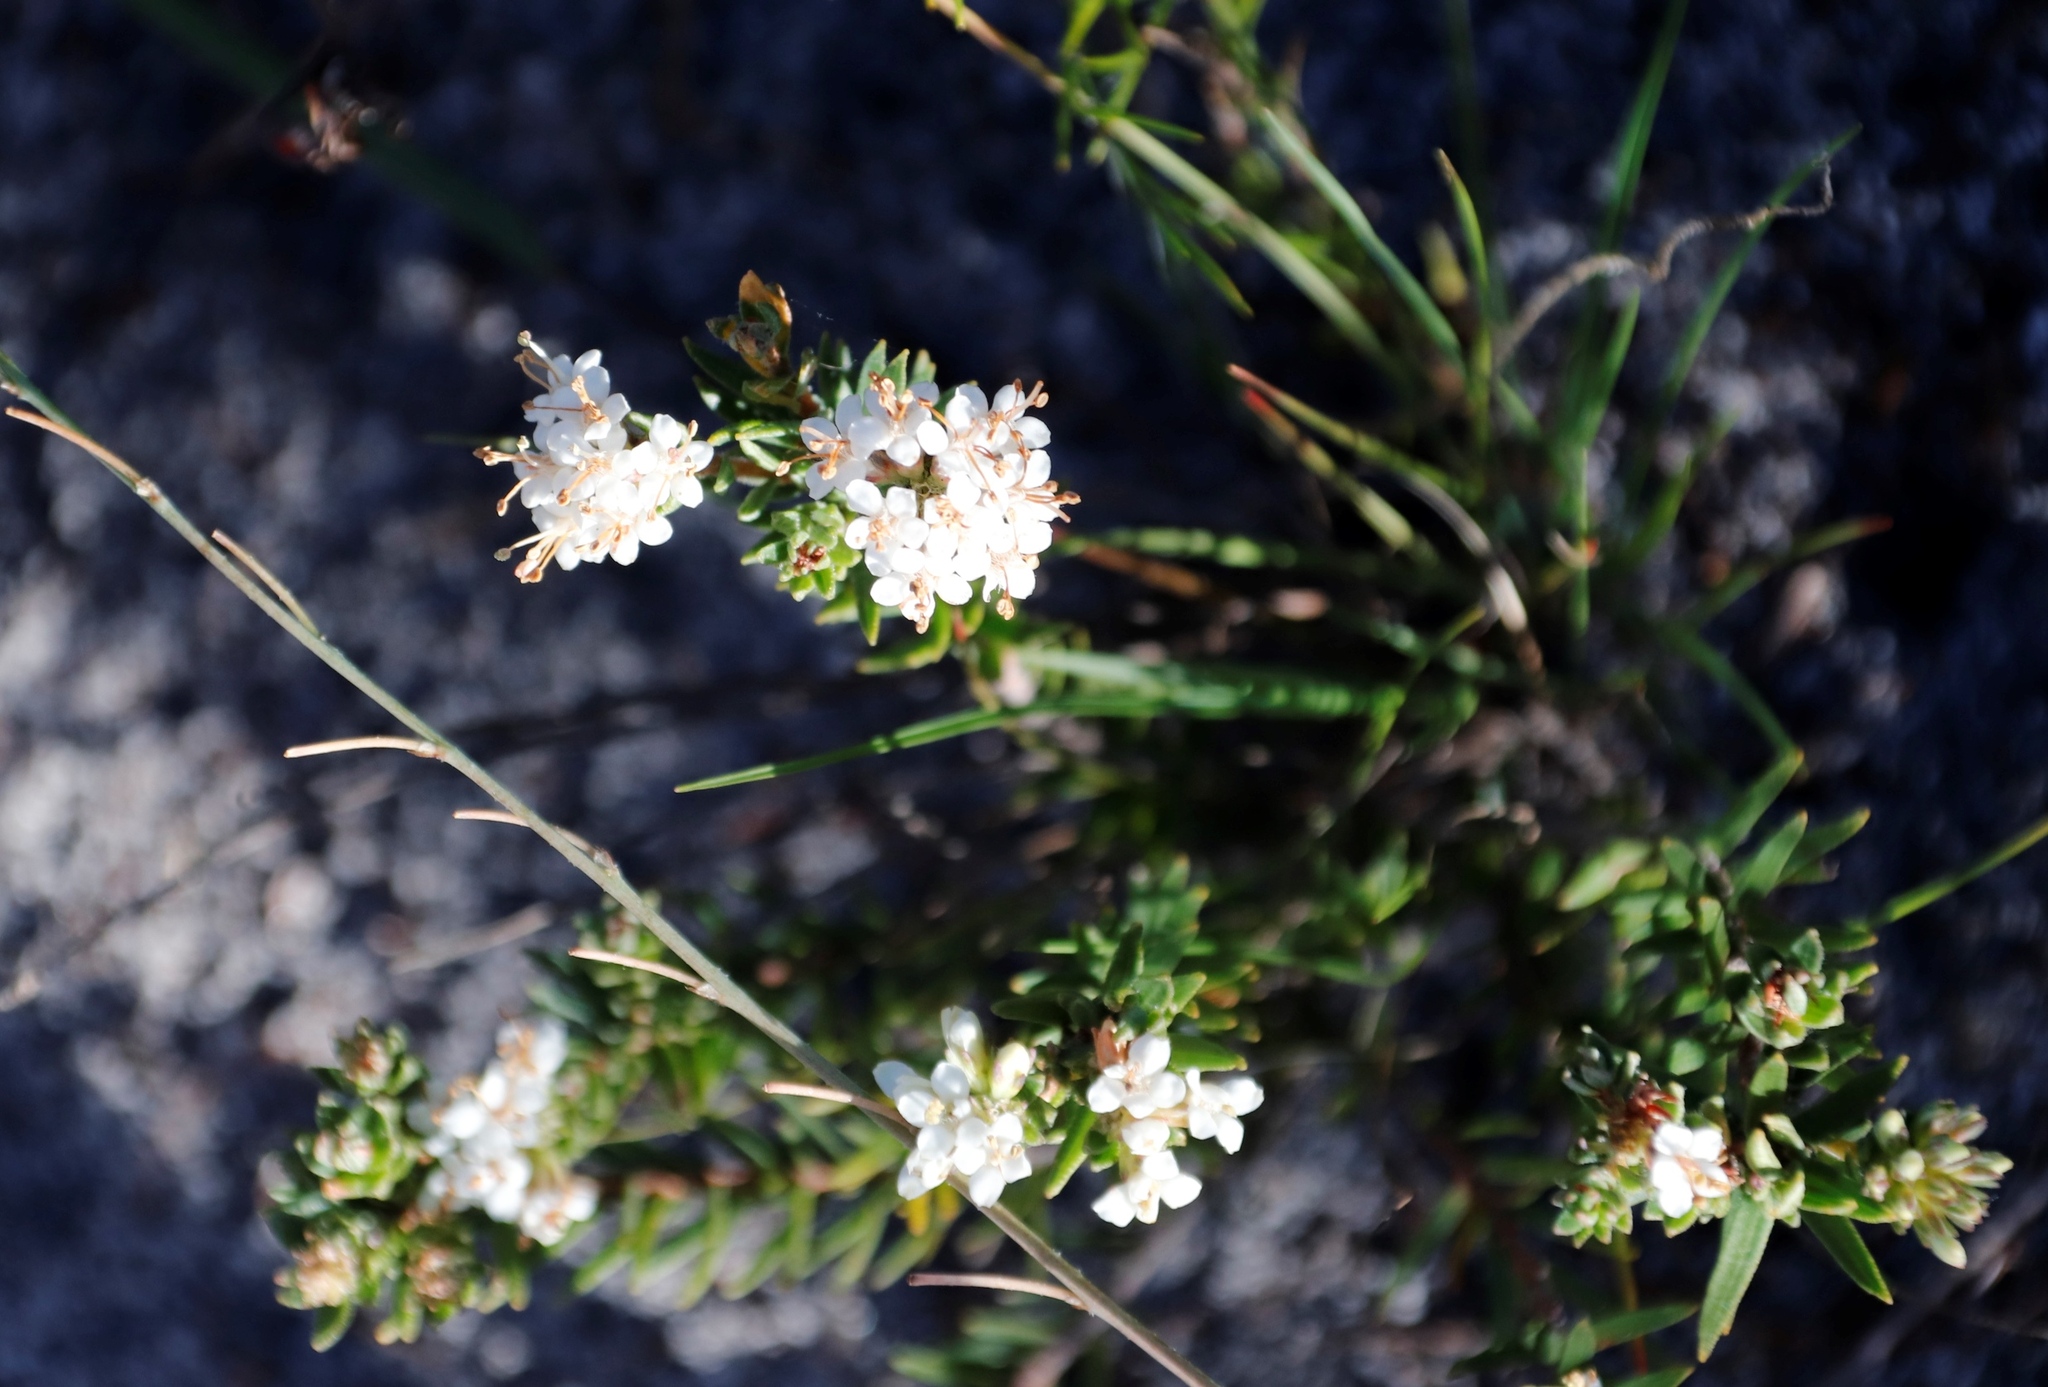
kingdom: Plantae
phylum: Tracheophyta
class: Magnoliopsida
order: Sapindales
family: Rutaceae
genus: Macrostylis
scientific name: Macrostylis villosa
